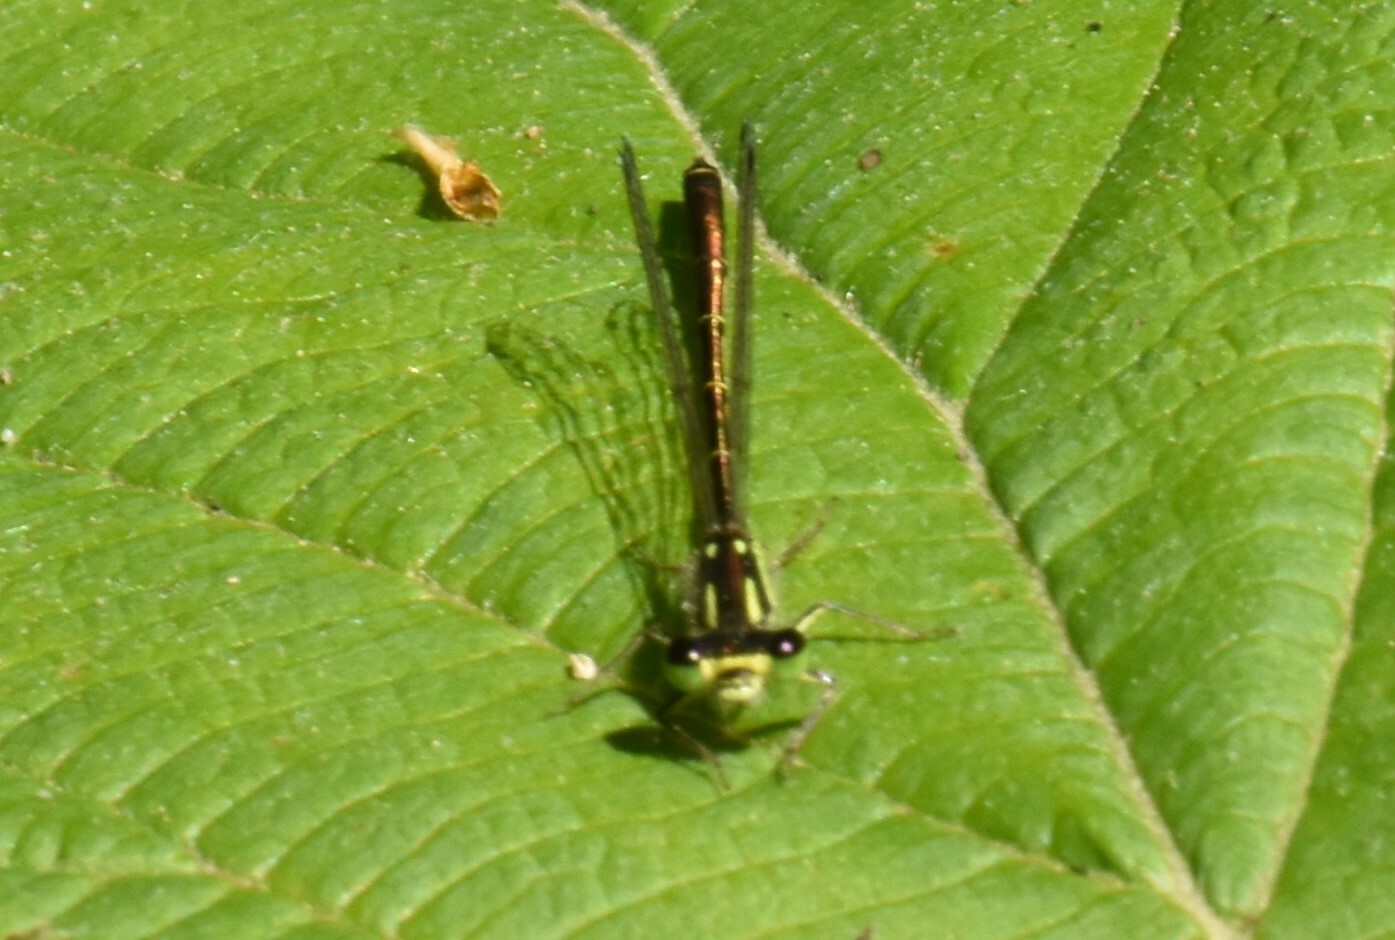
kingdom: Animalia
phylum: Arthropoda
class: Insecta
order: Odonata
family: Coenagrionidae
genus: Ischnura
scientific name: Ischnura posita
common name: Fragile forktail
